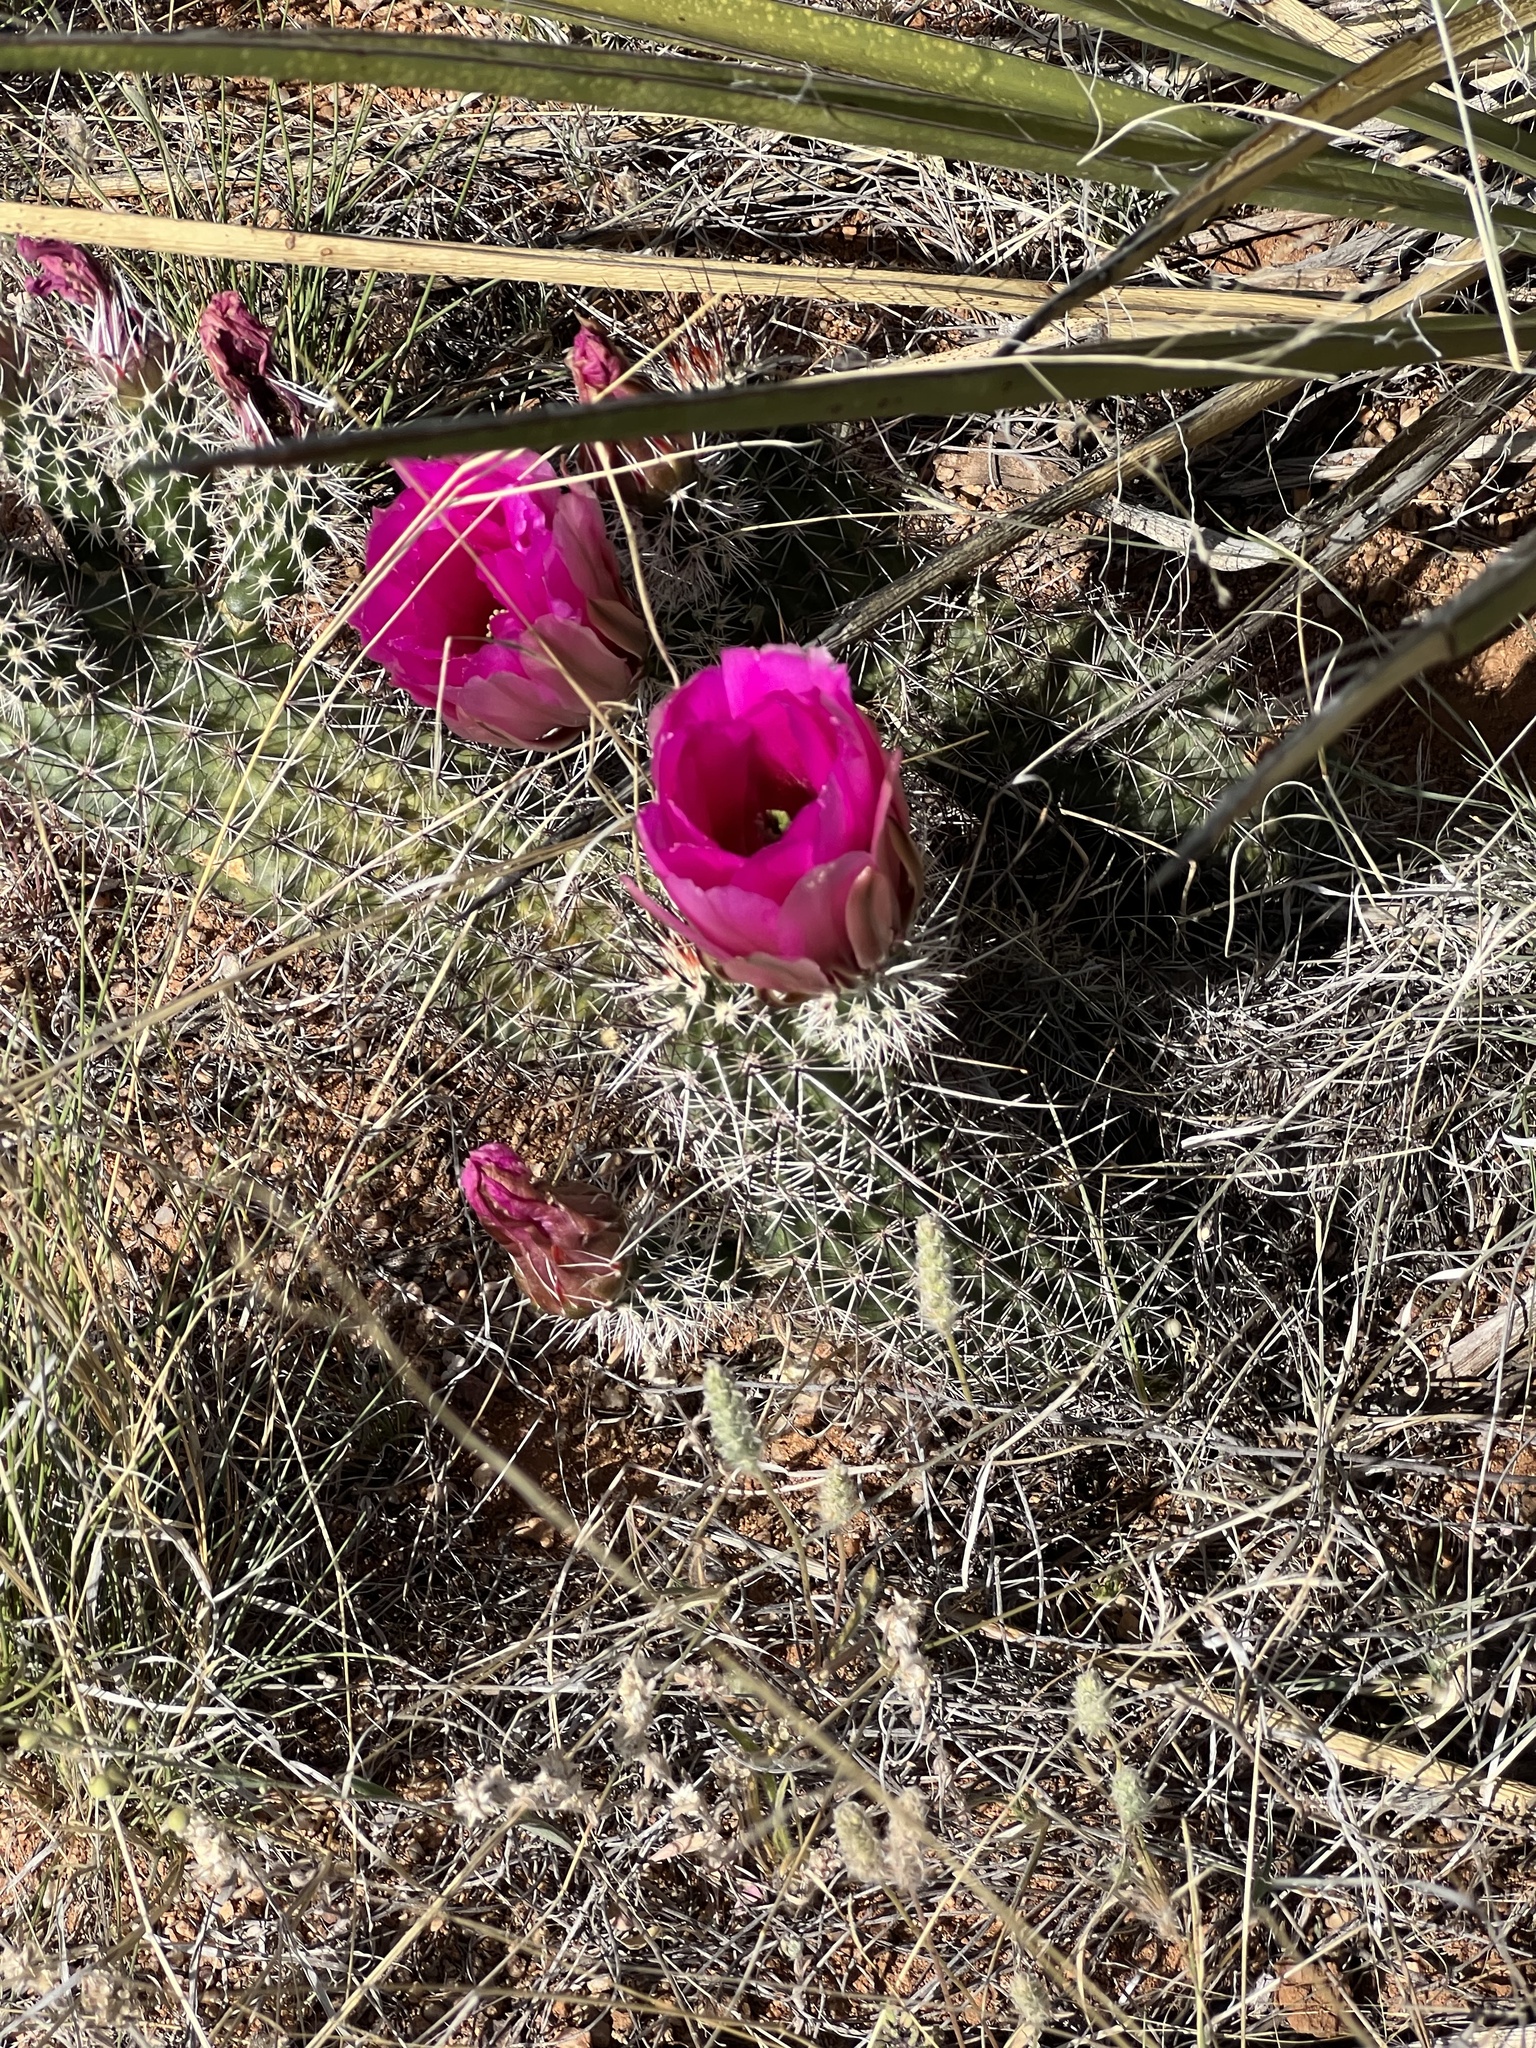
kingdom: Plantae
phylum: Tracheophyta
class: Magnoliopsida
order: Caryophyllales
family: Cactaceae
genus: Echinocereus
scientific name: Echinocereus fasciculatus
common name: Bundle hedgehog
